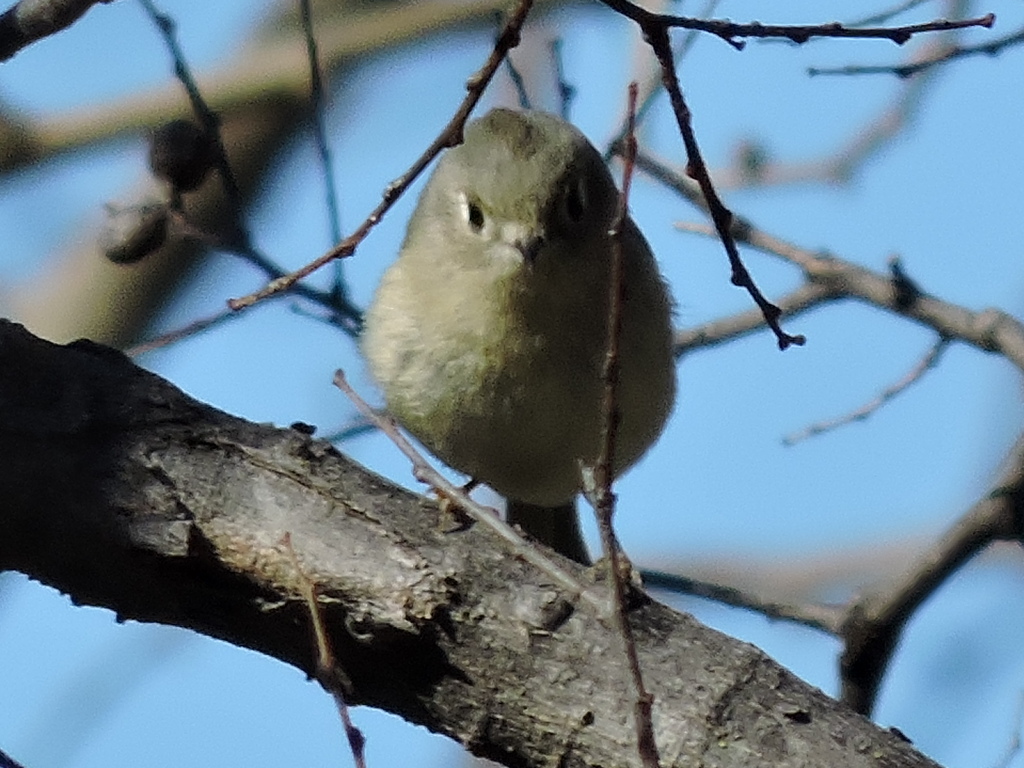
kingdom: Animalia
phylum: Chordata
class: Aves
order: Passeriformes
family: Regulidae
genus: Regulus
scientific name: Regulus calendula
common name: Ruby-crowned kinglet
